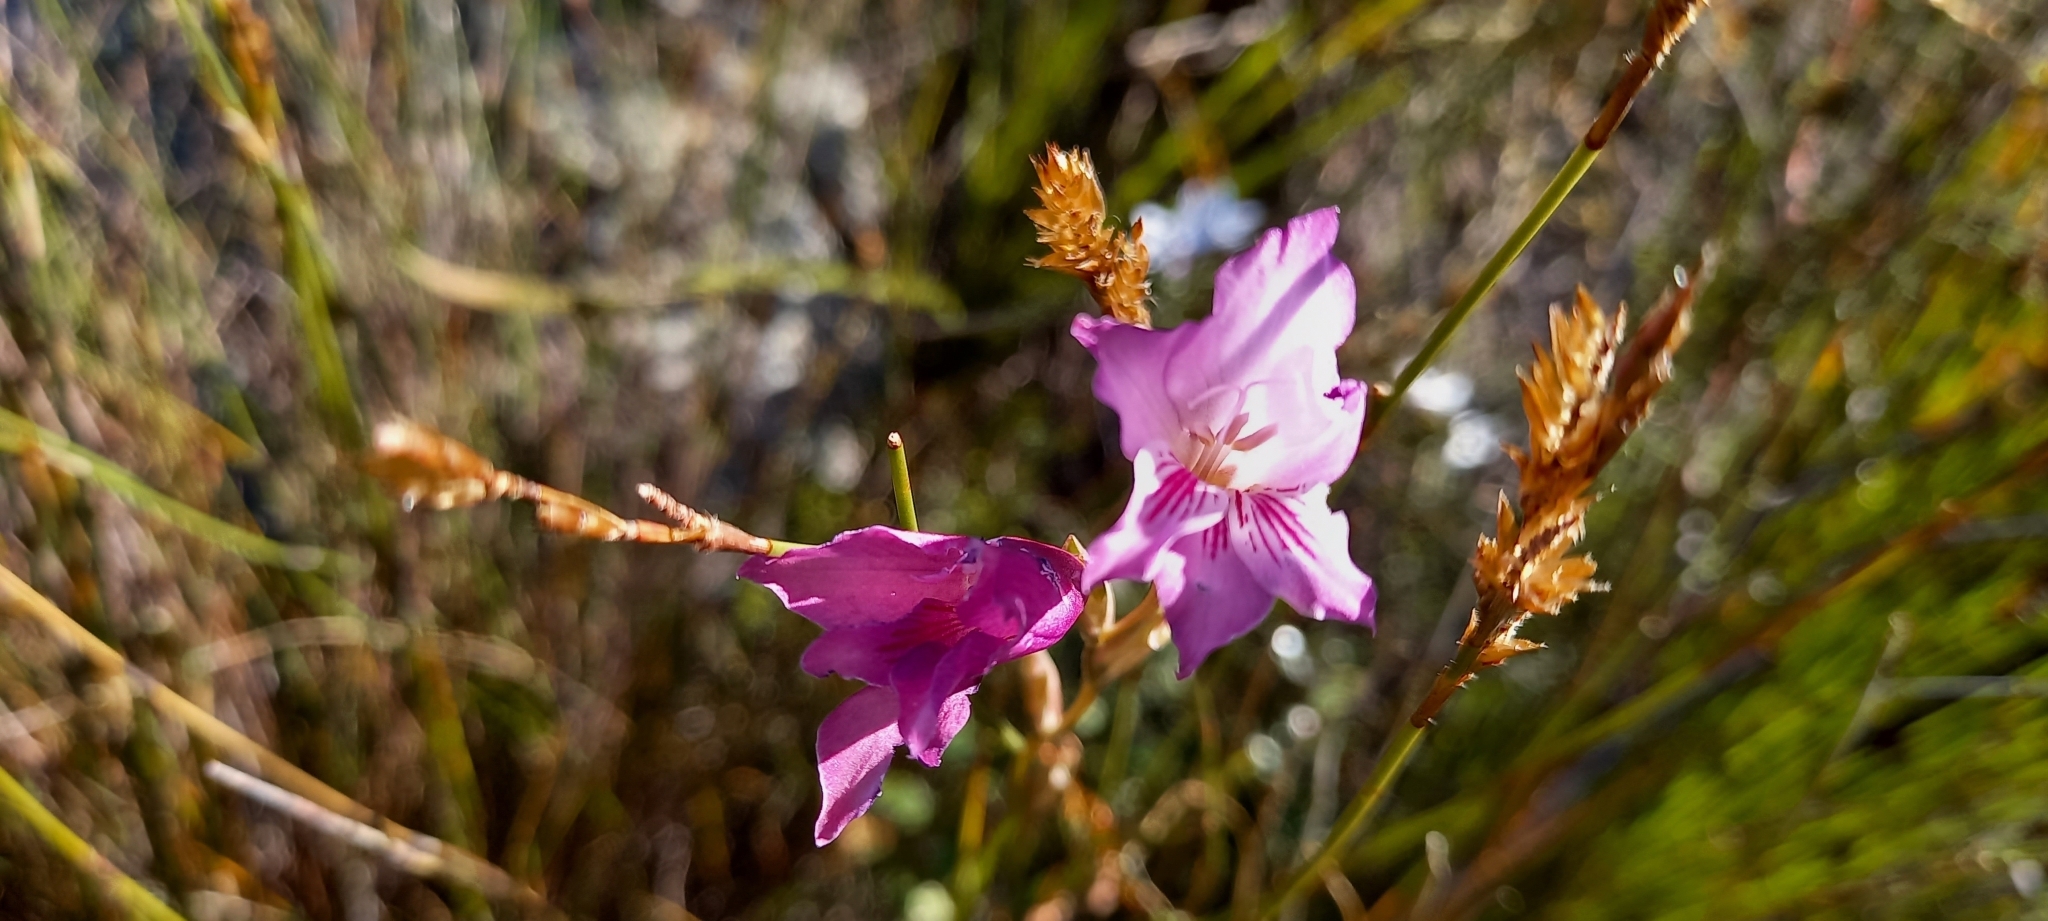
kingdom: Plantae
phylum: Tracheophyta
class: Liliopsida
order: Asparagales
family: Iridaceae
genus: Gladiolus
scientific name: Gladiolus hirsutus
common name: Small pink afrikaner
